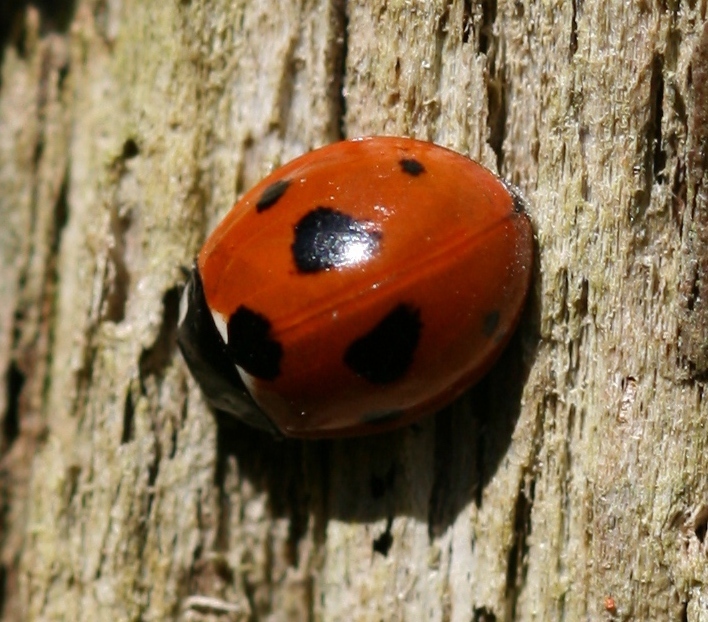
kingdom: Animalia
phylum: Arthropoda
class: Insecta
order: Coleoptera
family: Coccinellidae
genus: Coccinella
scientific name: Coccinella septempunctata
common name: Sevenspotted lady beetle
